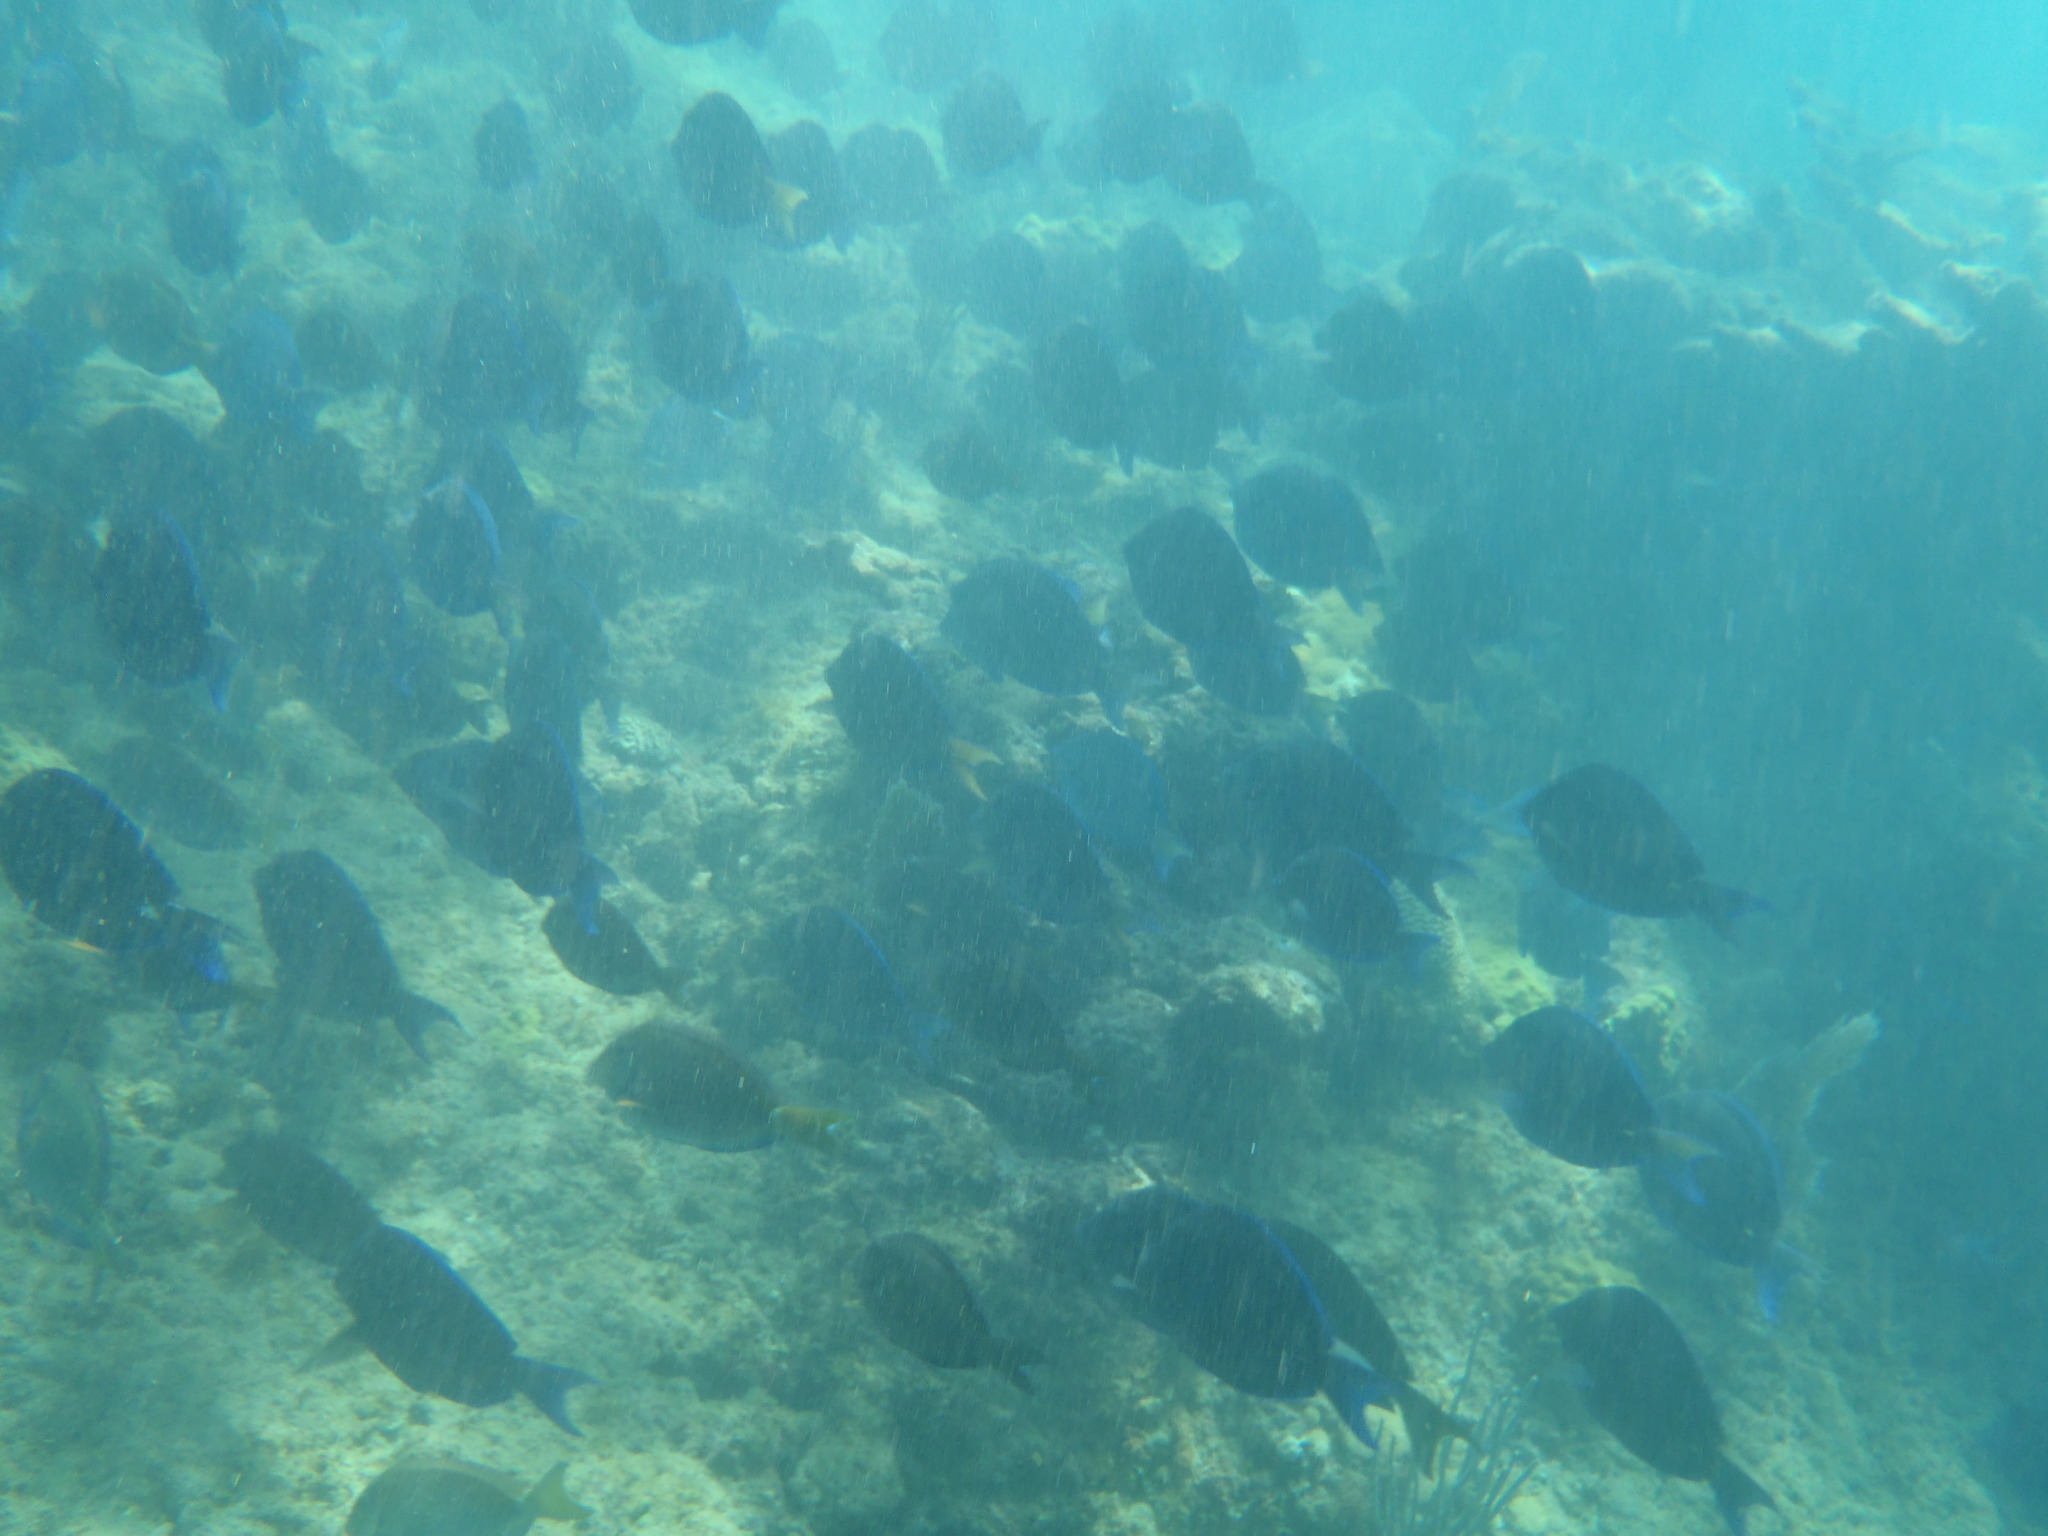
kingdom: Animalia
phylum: Chordata
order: Perciformes
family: Acanthuridae
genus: Acanthurus
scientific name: Acanthurus coeruleus
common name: Blue tang
